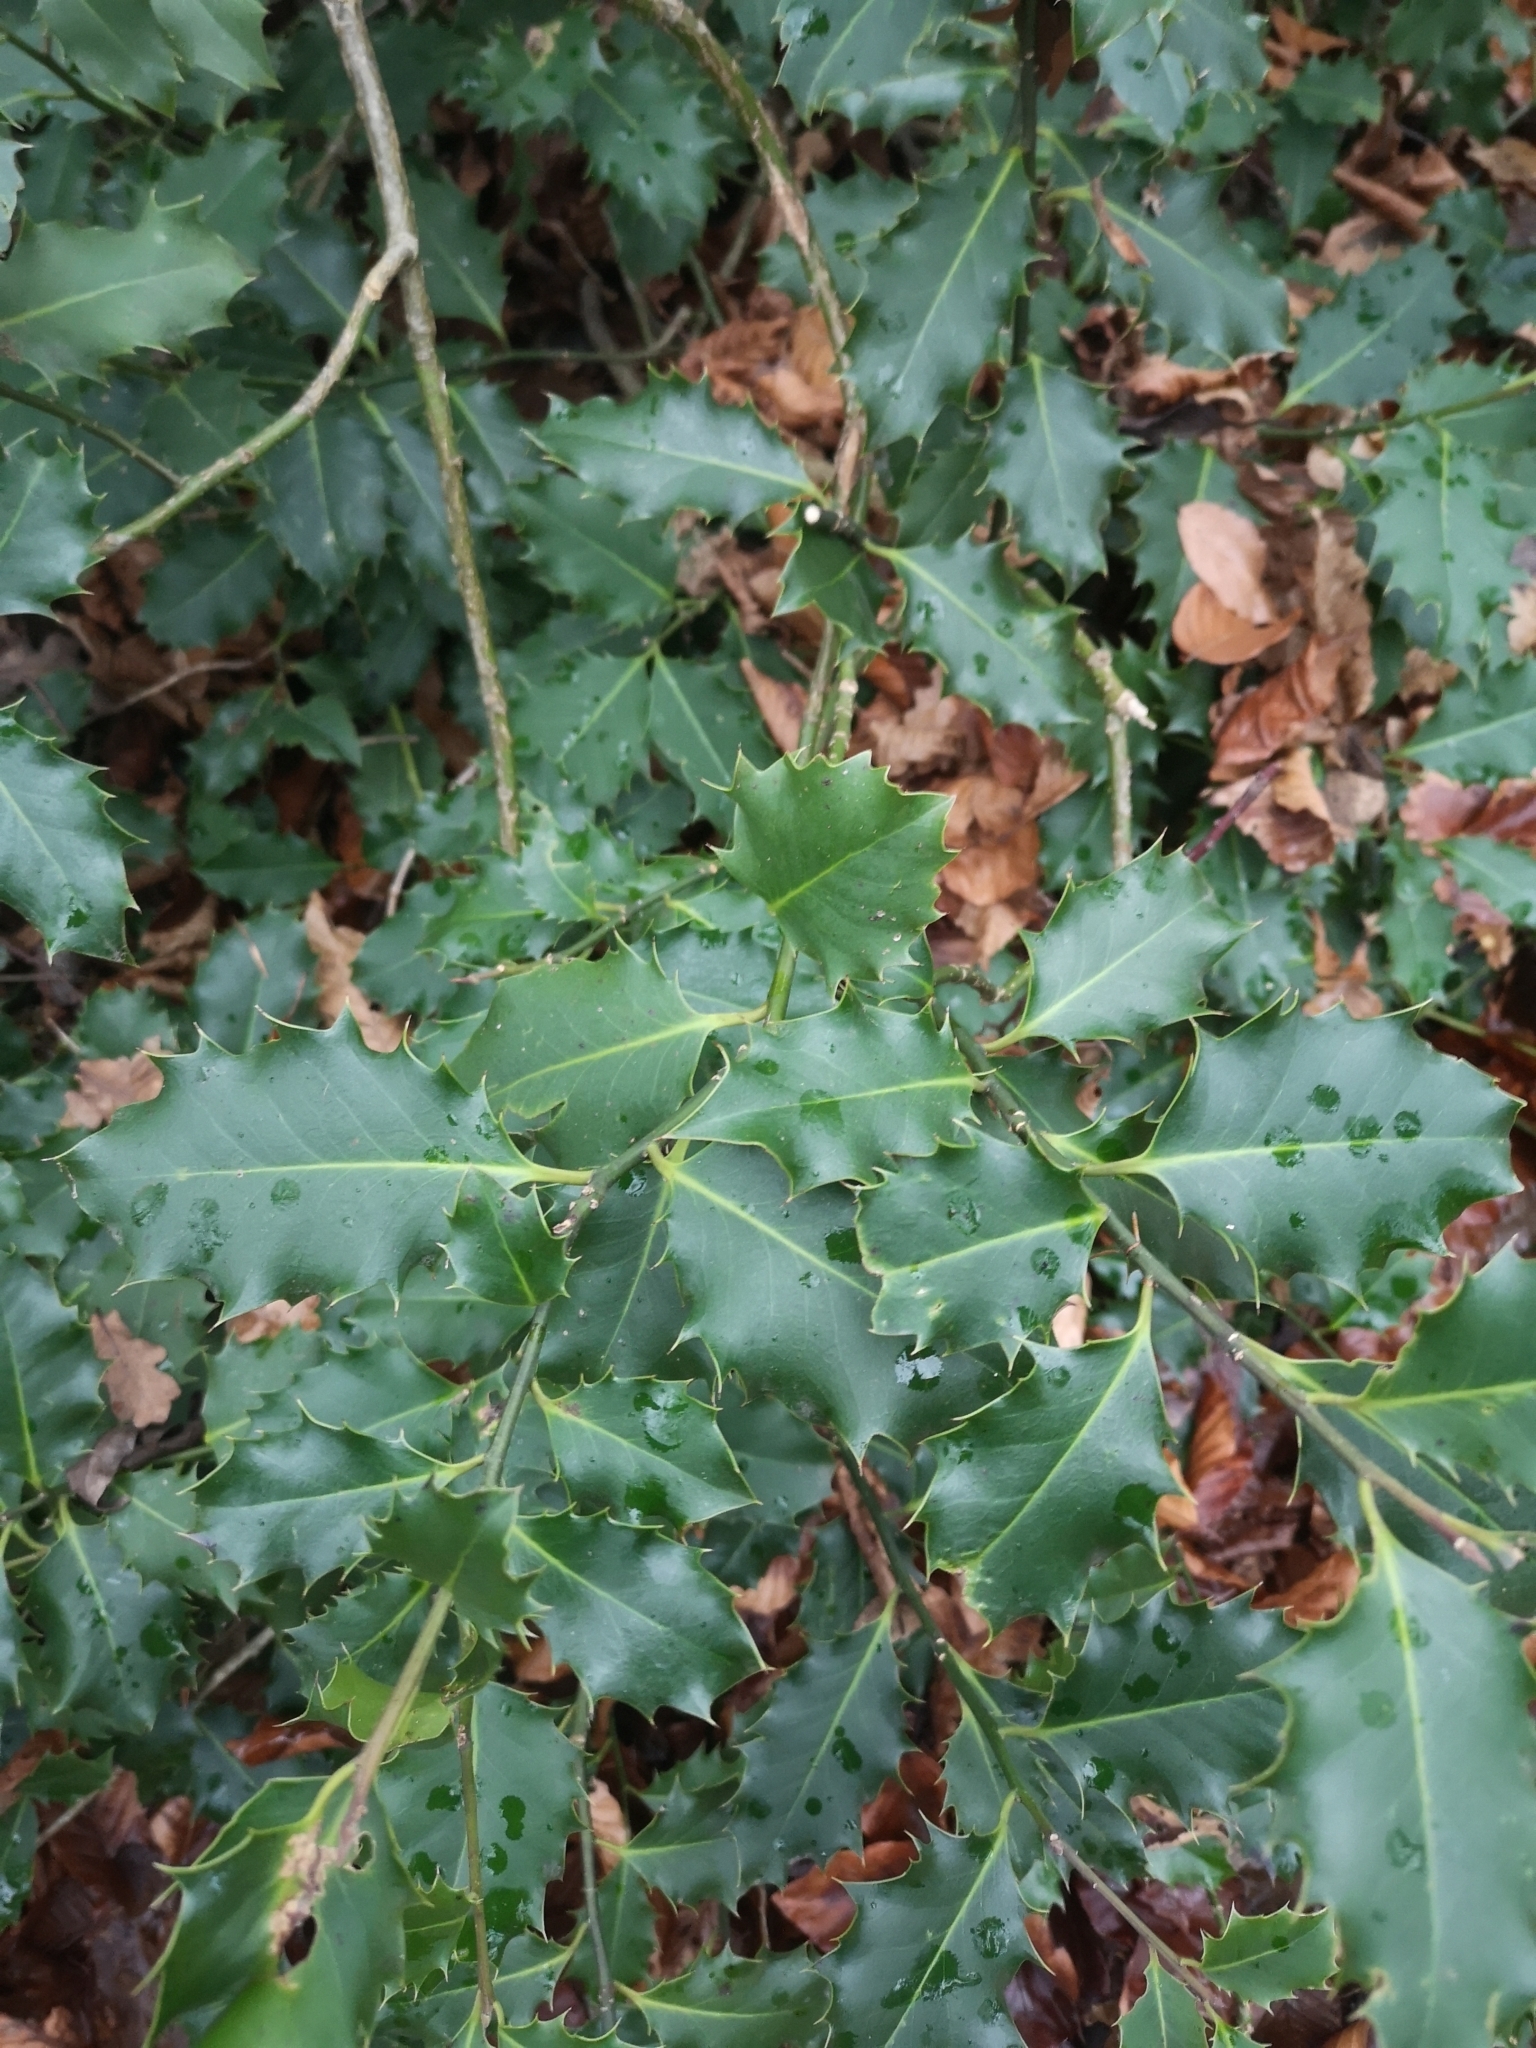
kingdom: Plantae
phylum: Tracheophyta
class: Magnoliopsida
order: Aquifoliales
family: Aquifoliaceae
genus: Ilex
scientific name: Ilex aquifolium
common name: English holly
